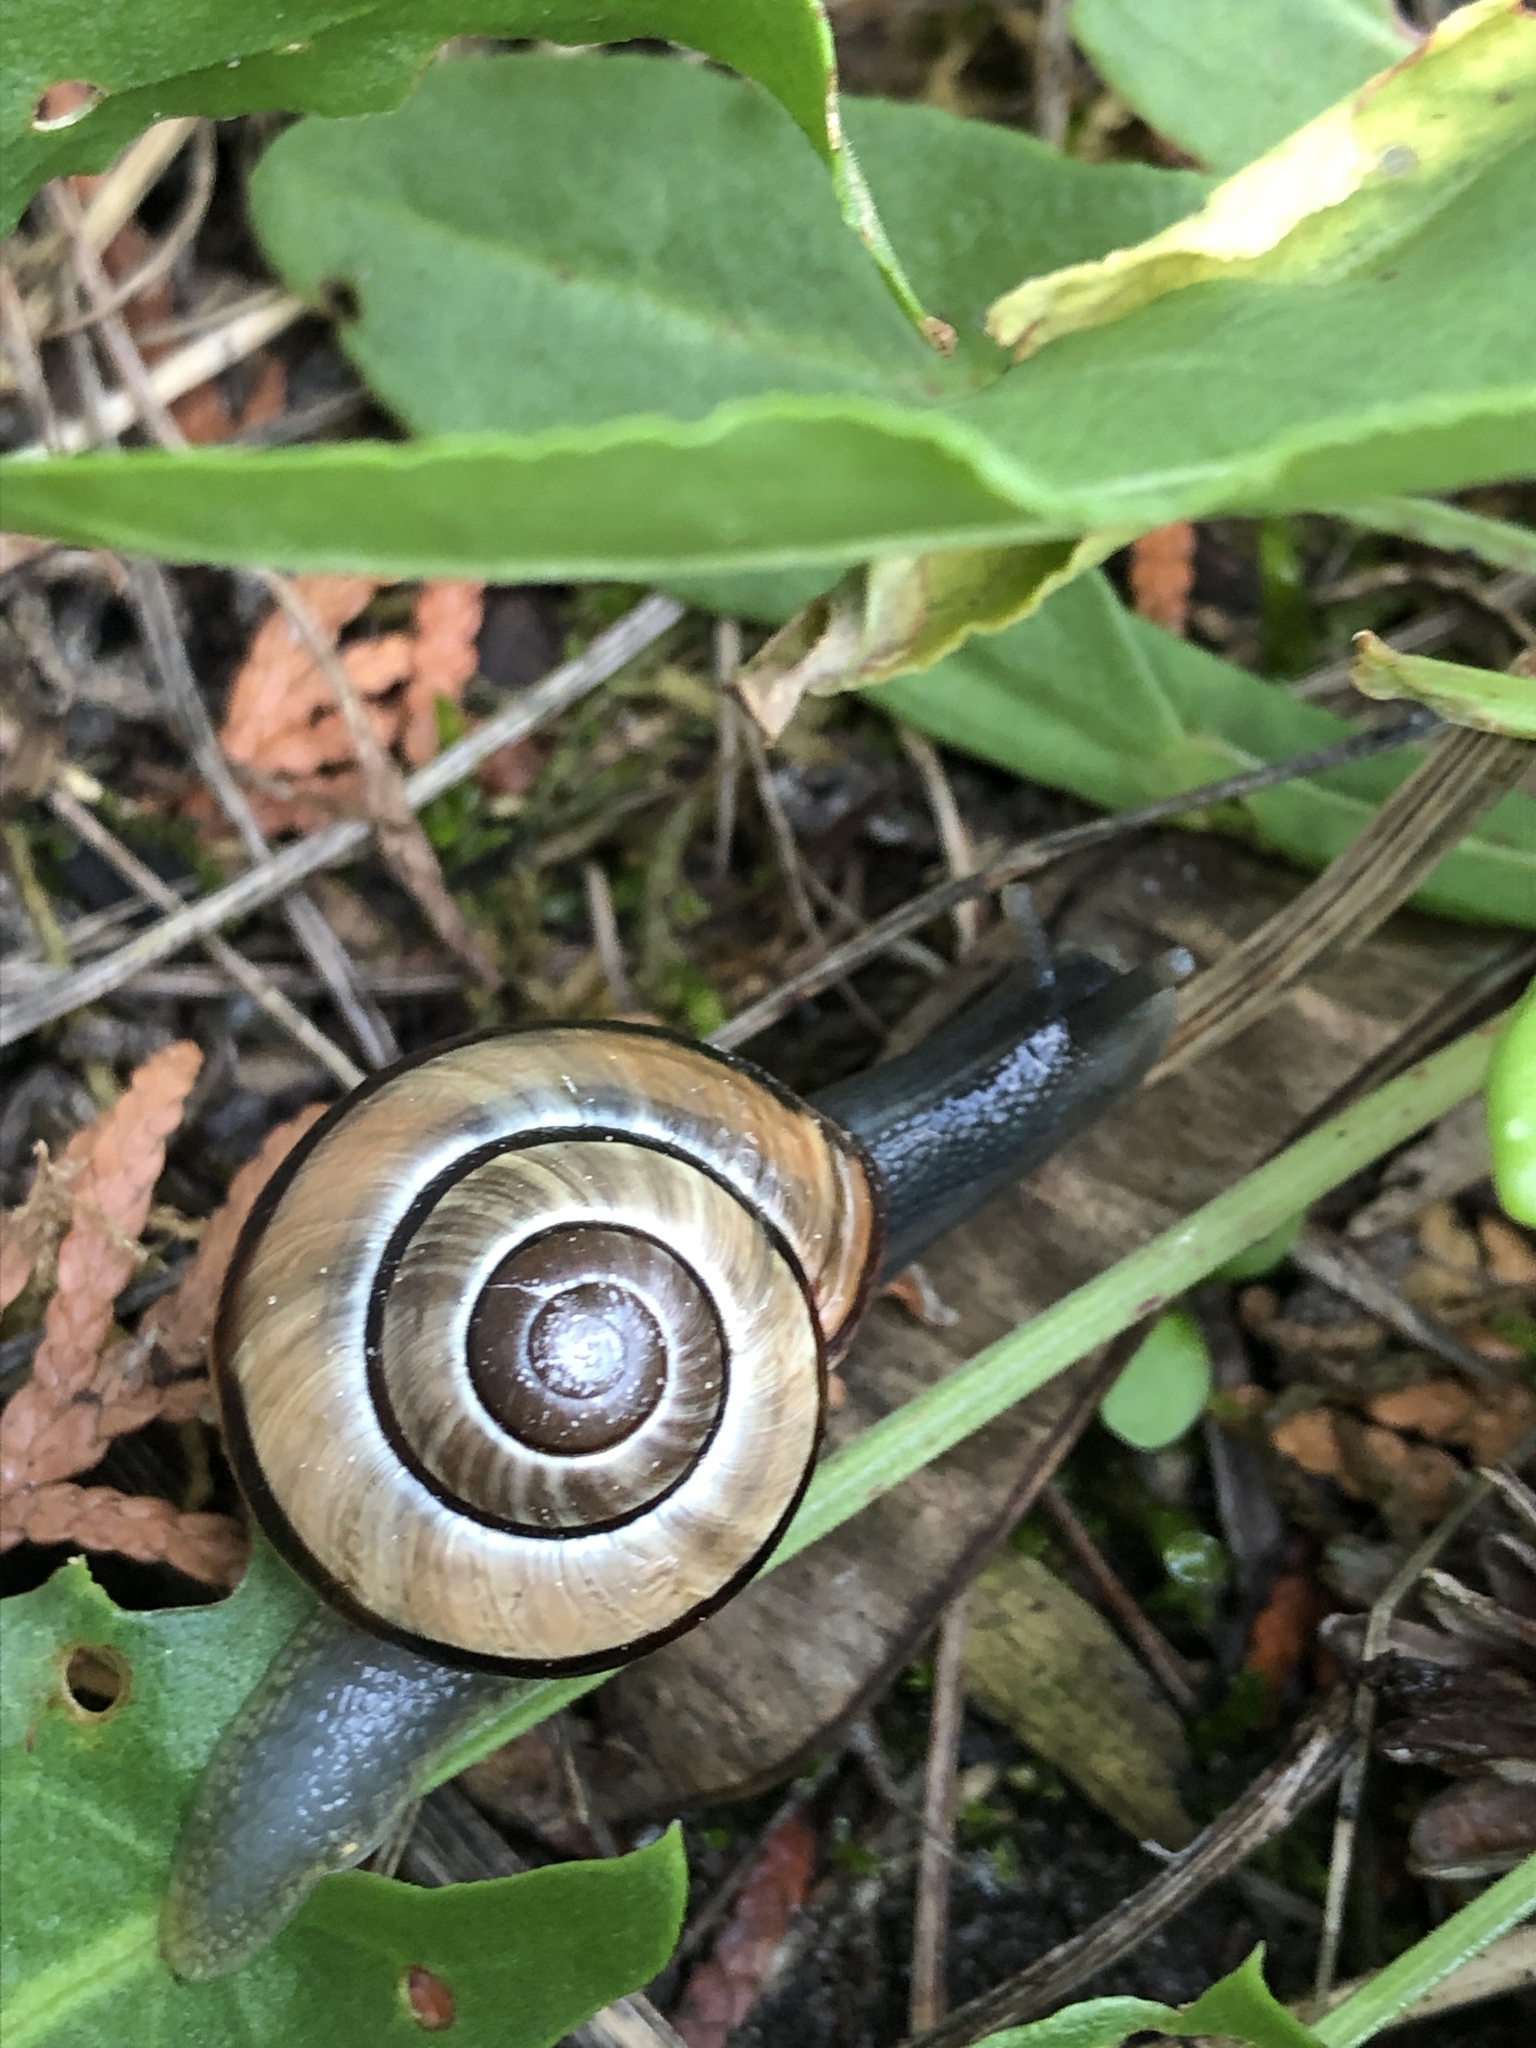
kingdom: Animalia
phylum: Mollusca
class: Gastropoda
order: Stylommatophora
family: Helicidae
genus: Cepaea
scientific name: Cepaea nemoralis
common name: Grovesnail
